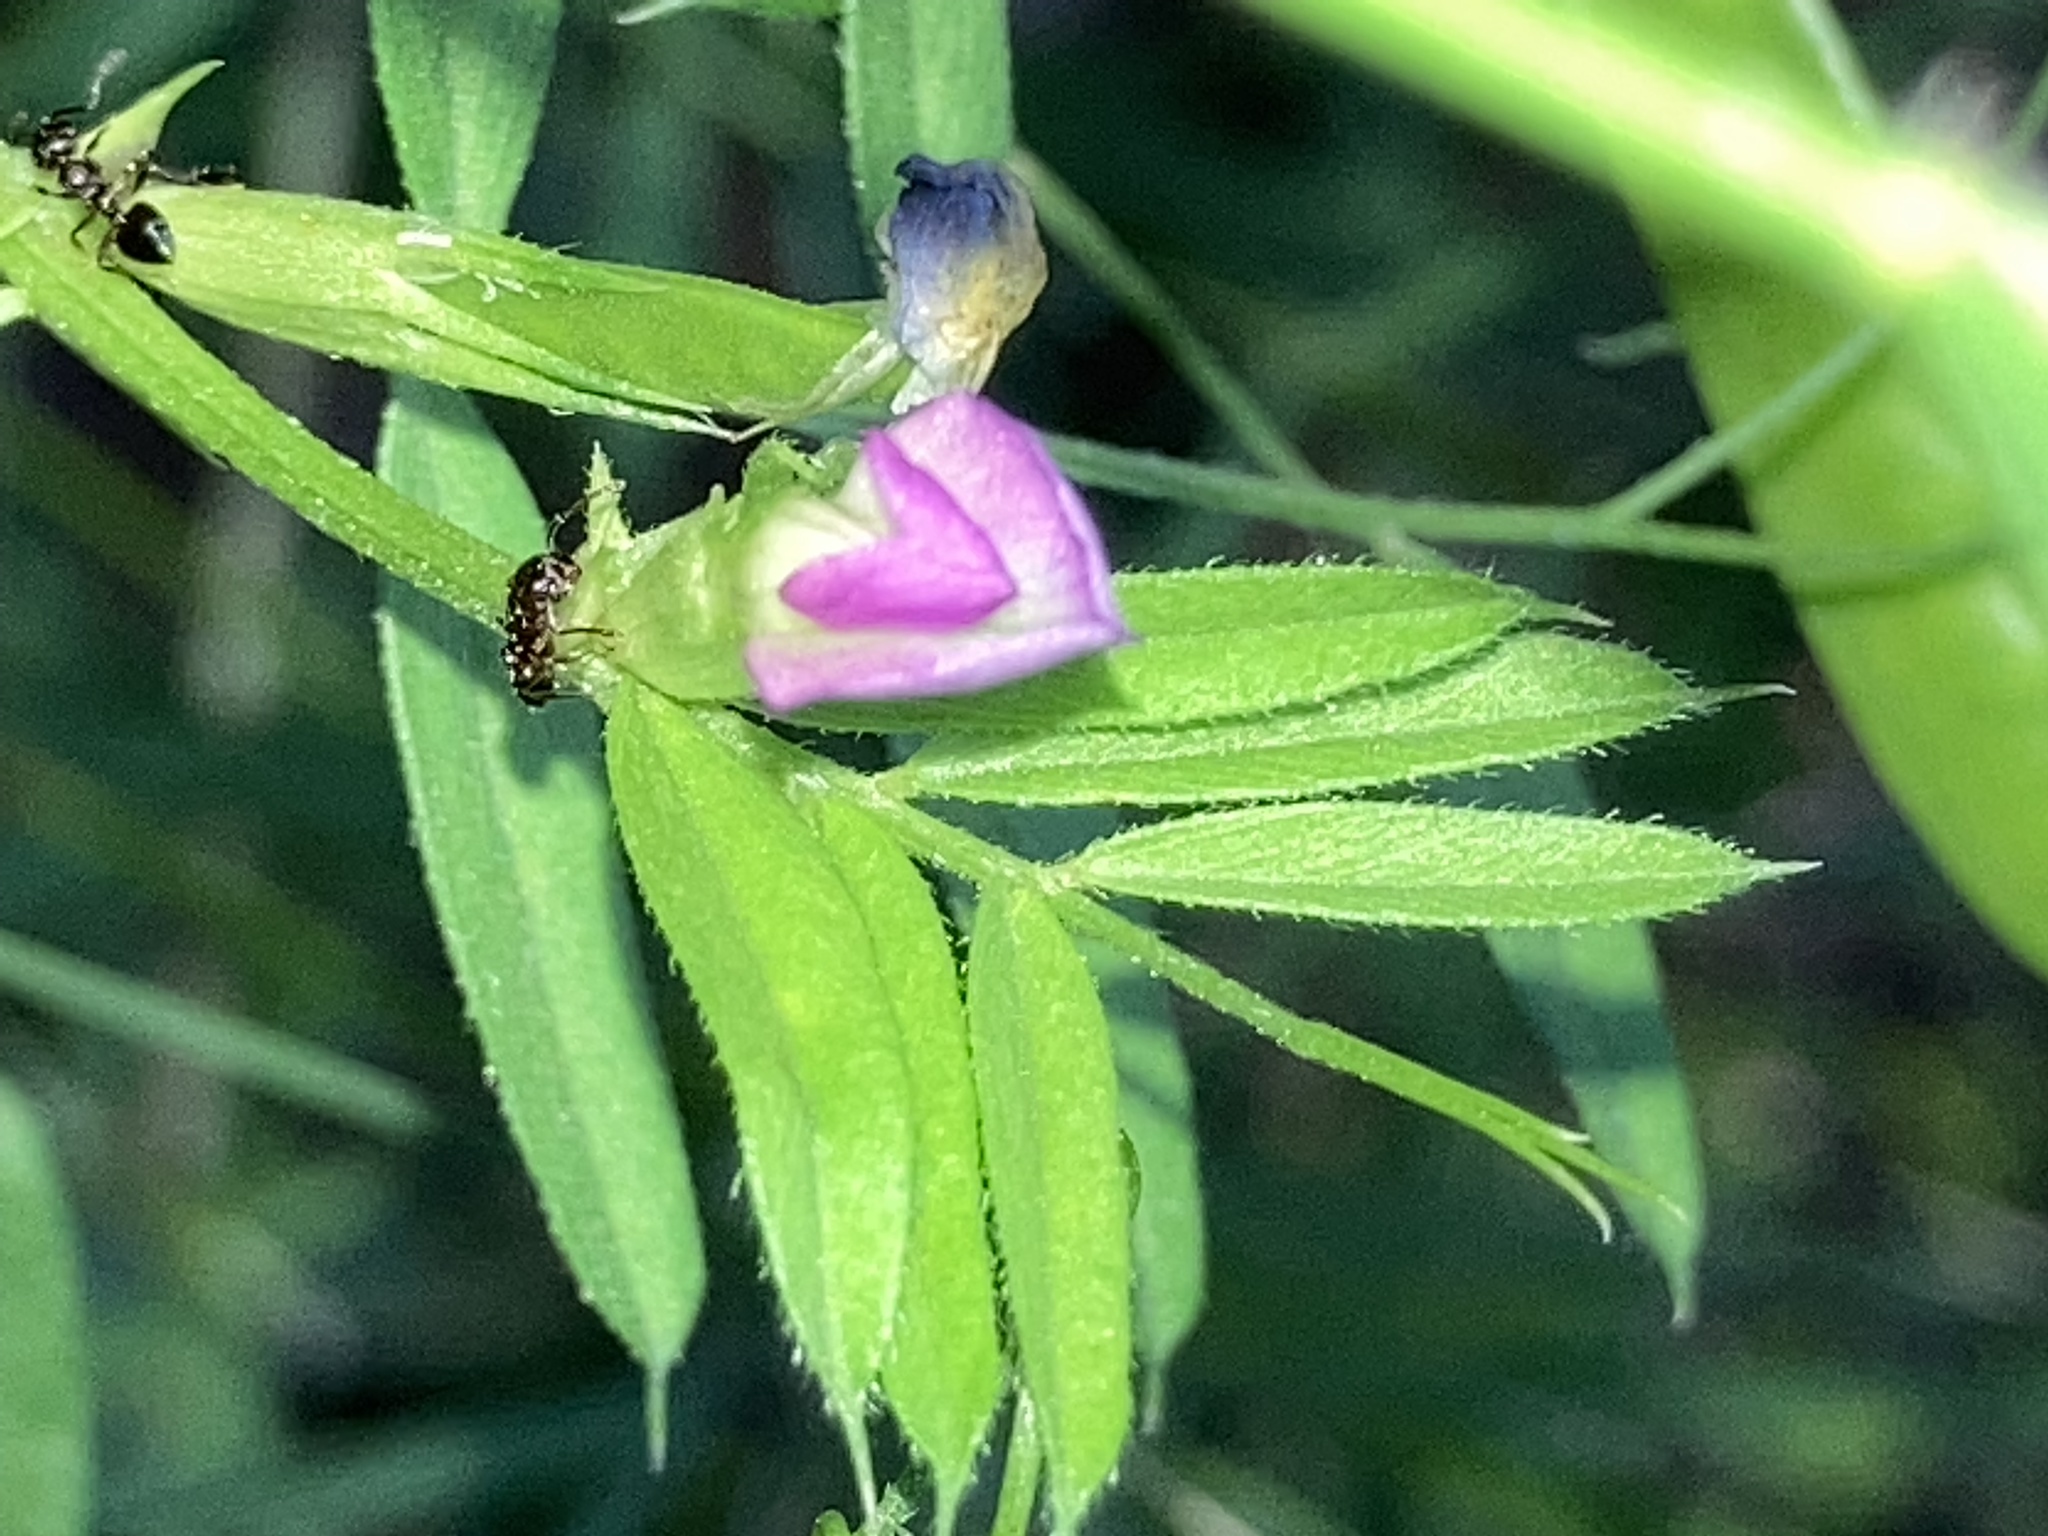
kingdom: Plantae
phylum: Tracheophyta
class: Magnoliopsida
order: Fabales
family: Fabaceae
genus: Vicia
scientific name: Vicia sativa
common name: Garden vetch
